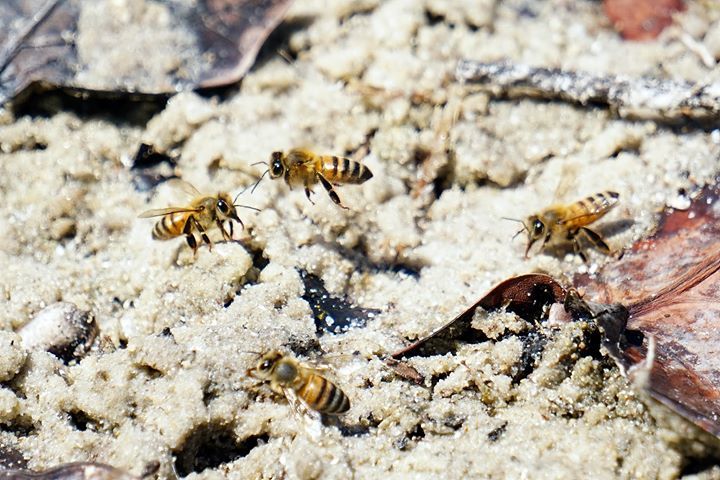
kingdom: Animalia
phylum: Arthropoda
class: Insecta
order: Hymenoptera
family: Apidae
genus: Apis
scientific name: Apis mellifera
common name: Honey bee
